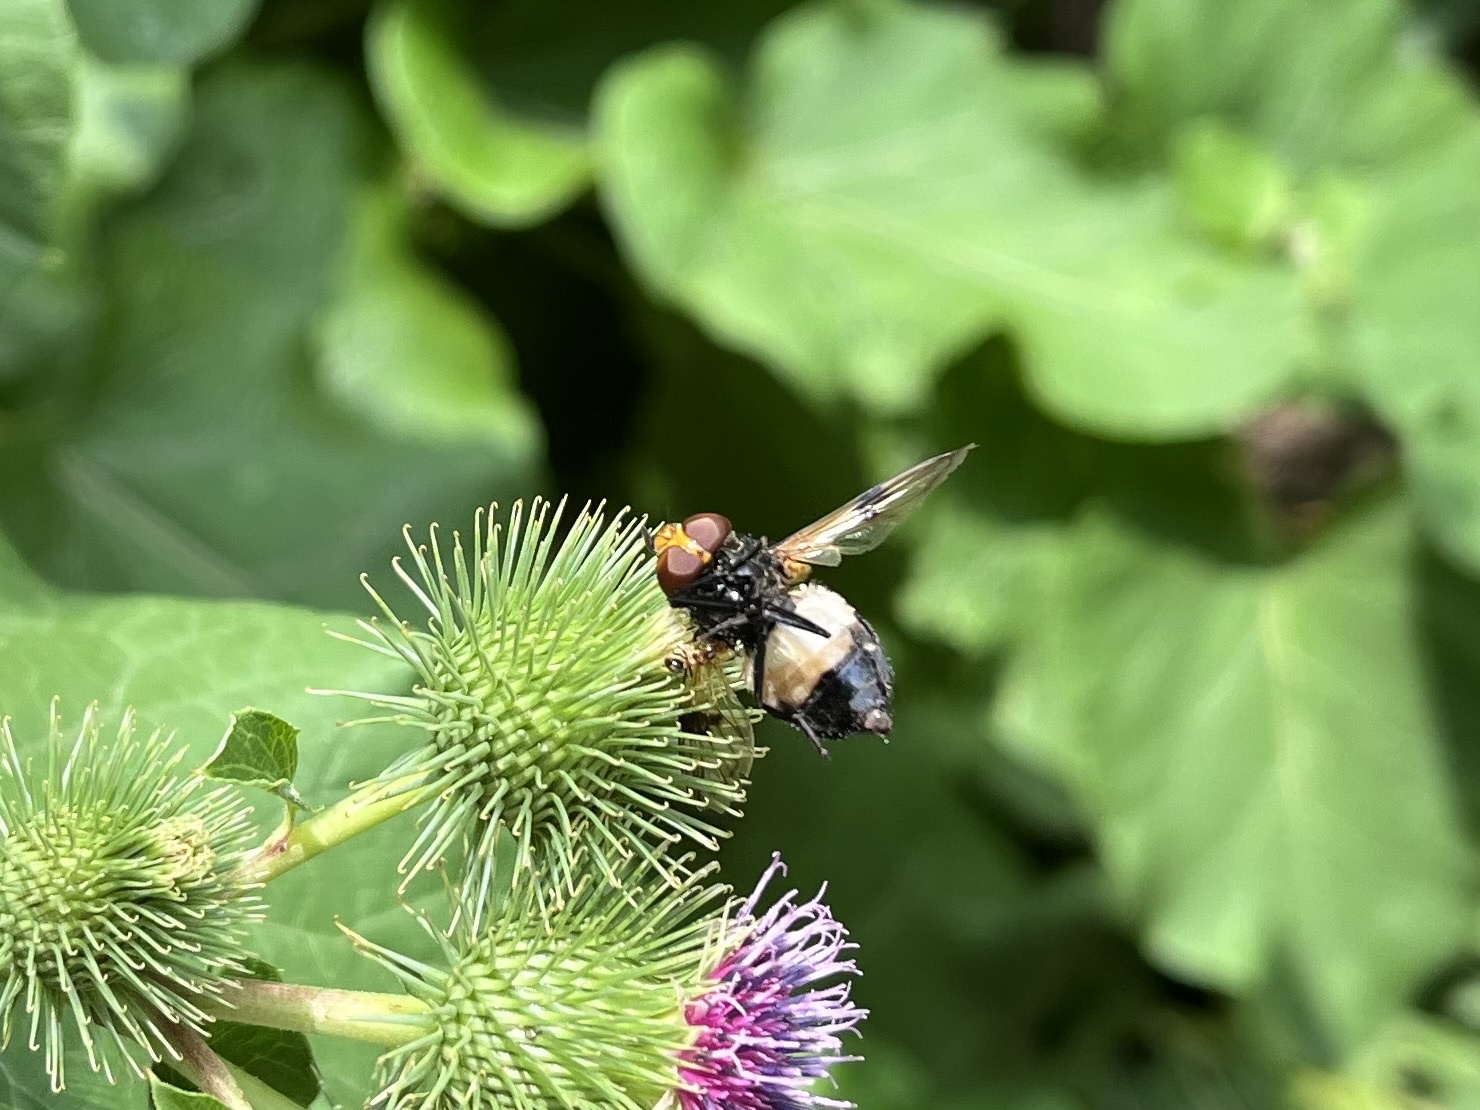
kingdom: Animalia
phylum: Arthropoda
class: Insecta
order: Diptera
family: Syrphidae
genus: Volucella
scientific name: Volucella pellucens
